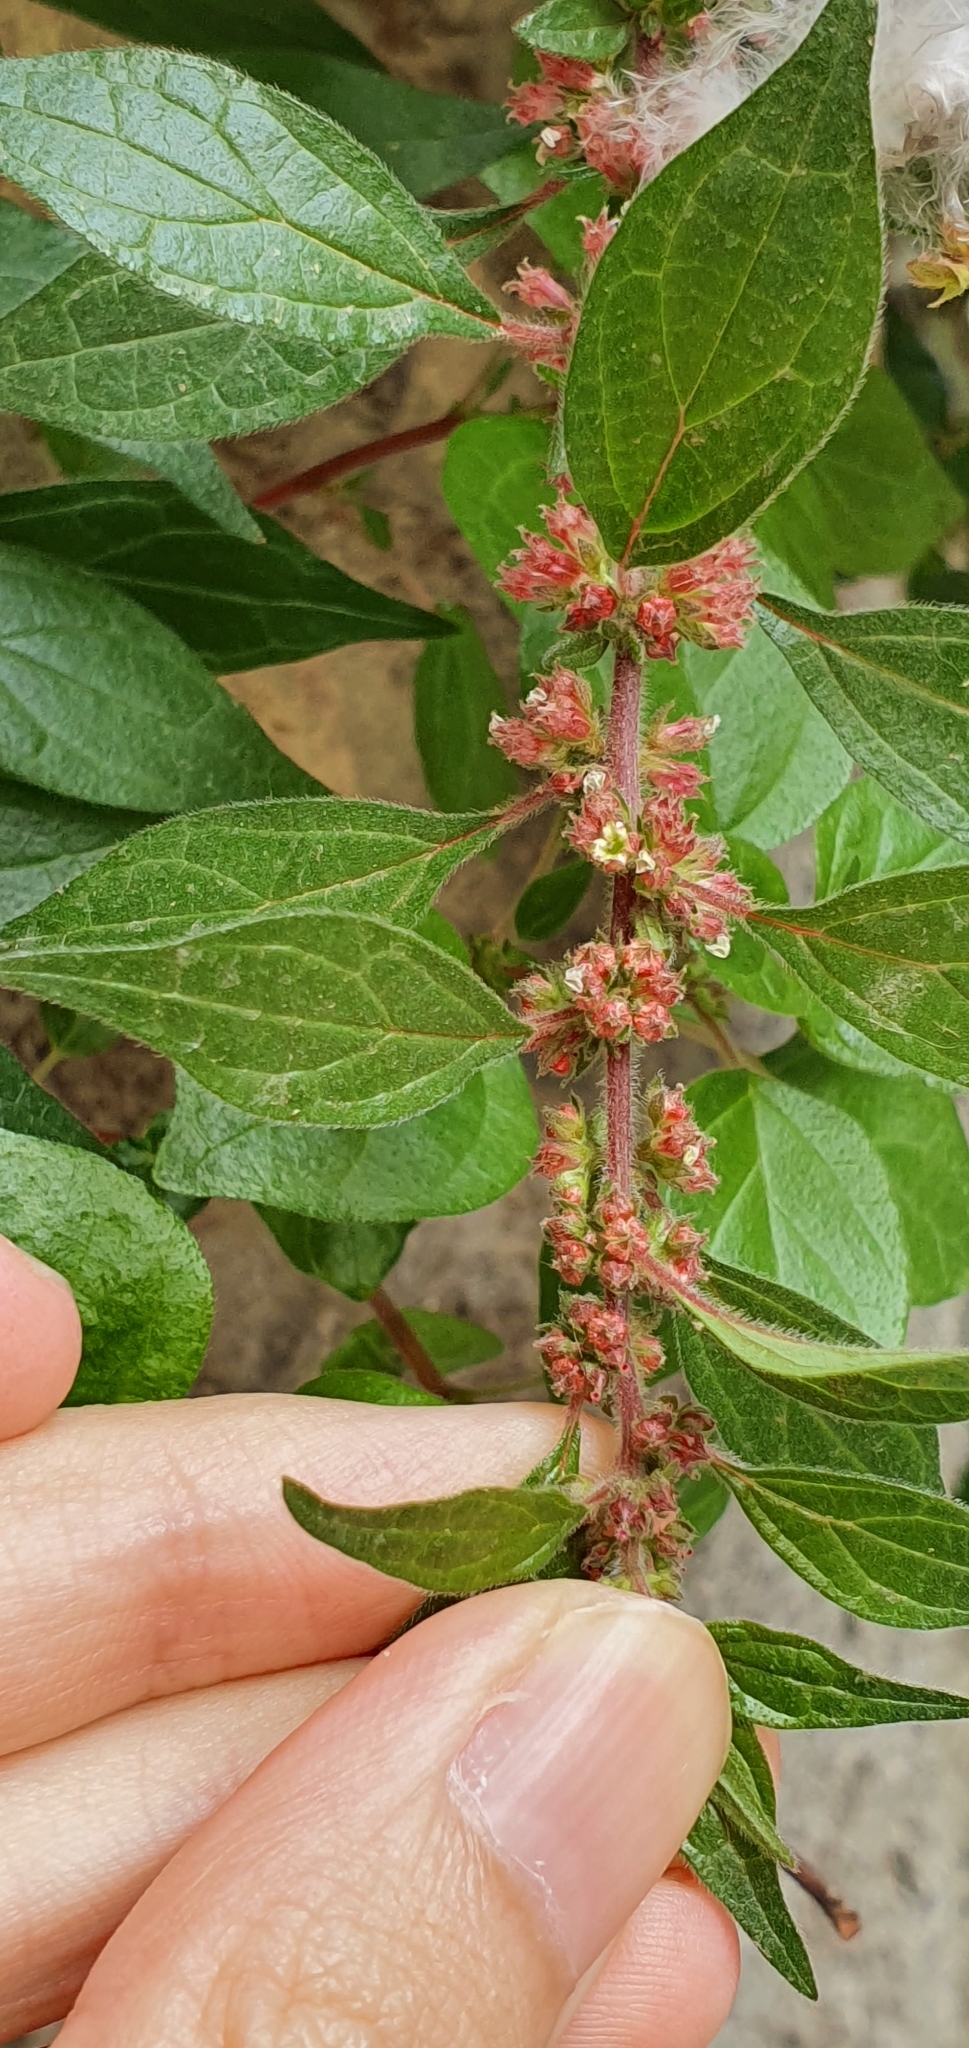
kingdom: Plantae
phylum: Tracheophyta
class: Magnoliopsida
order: Rosales
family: Urticaceae
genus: Parietaria
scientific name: Parietaria judaica
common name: Pellitory-of-the-wall
